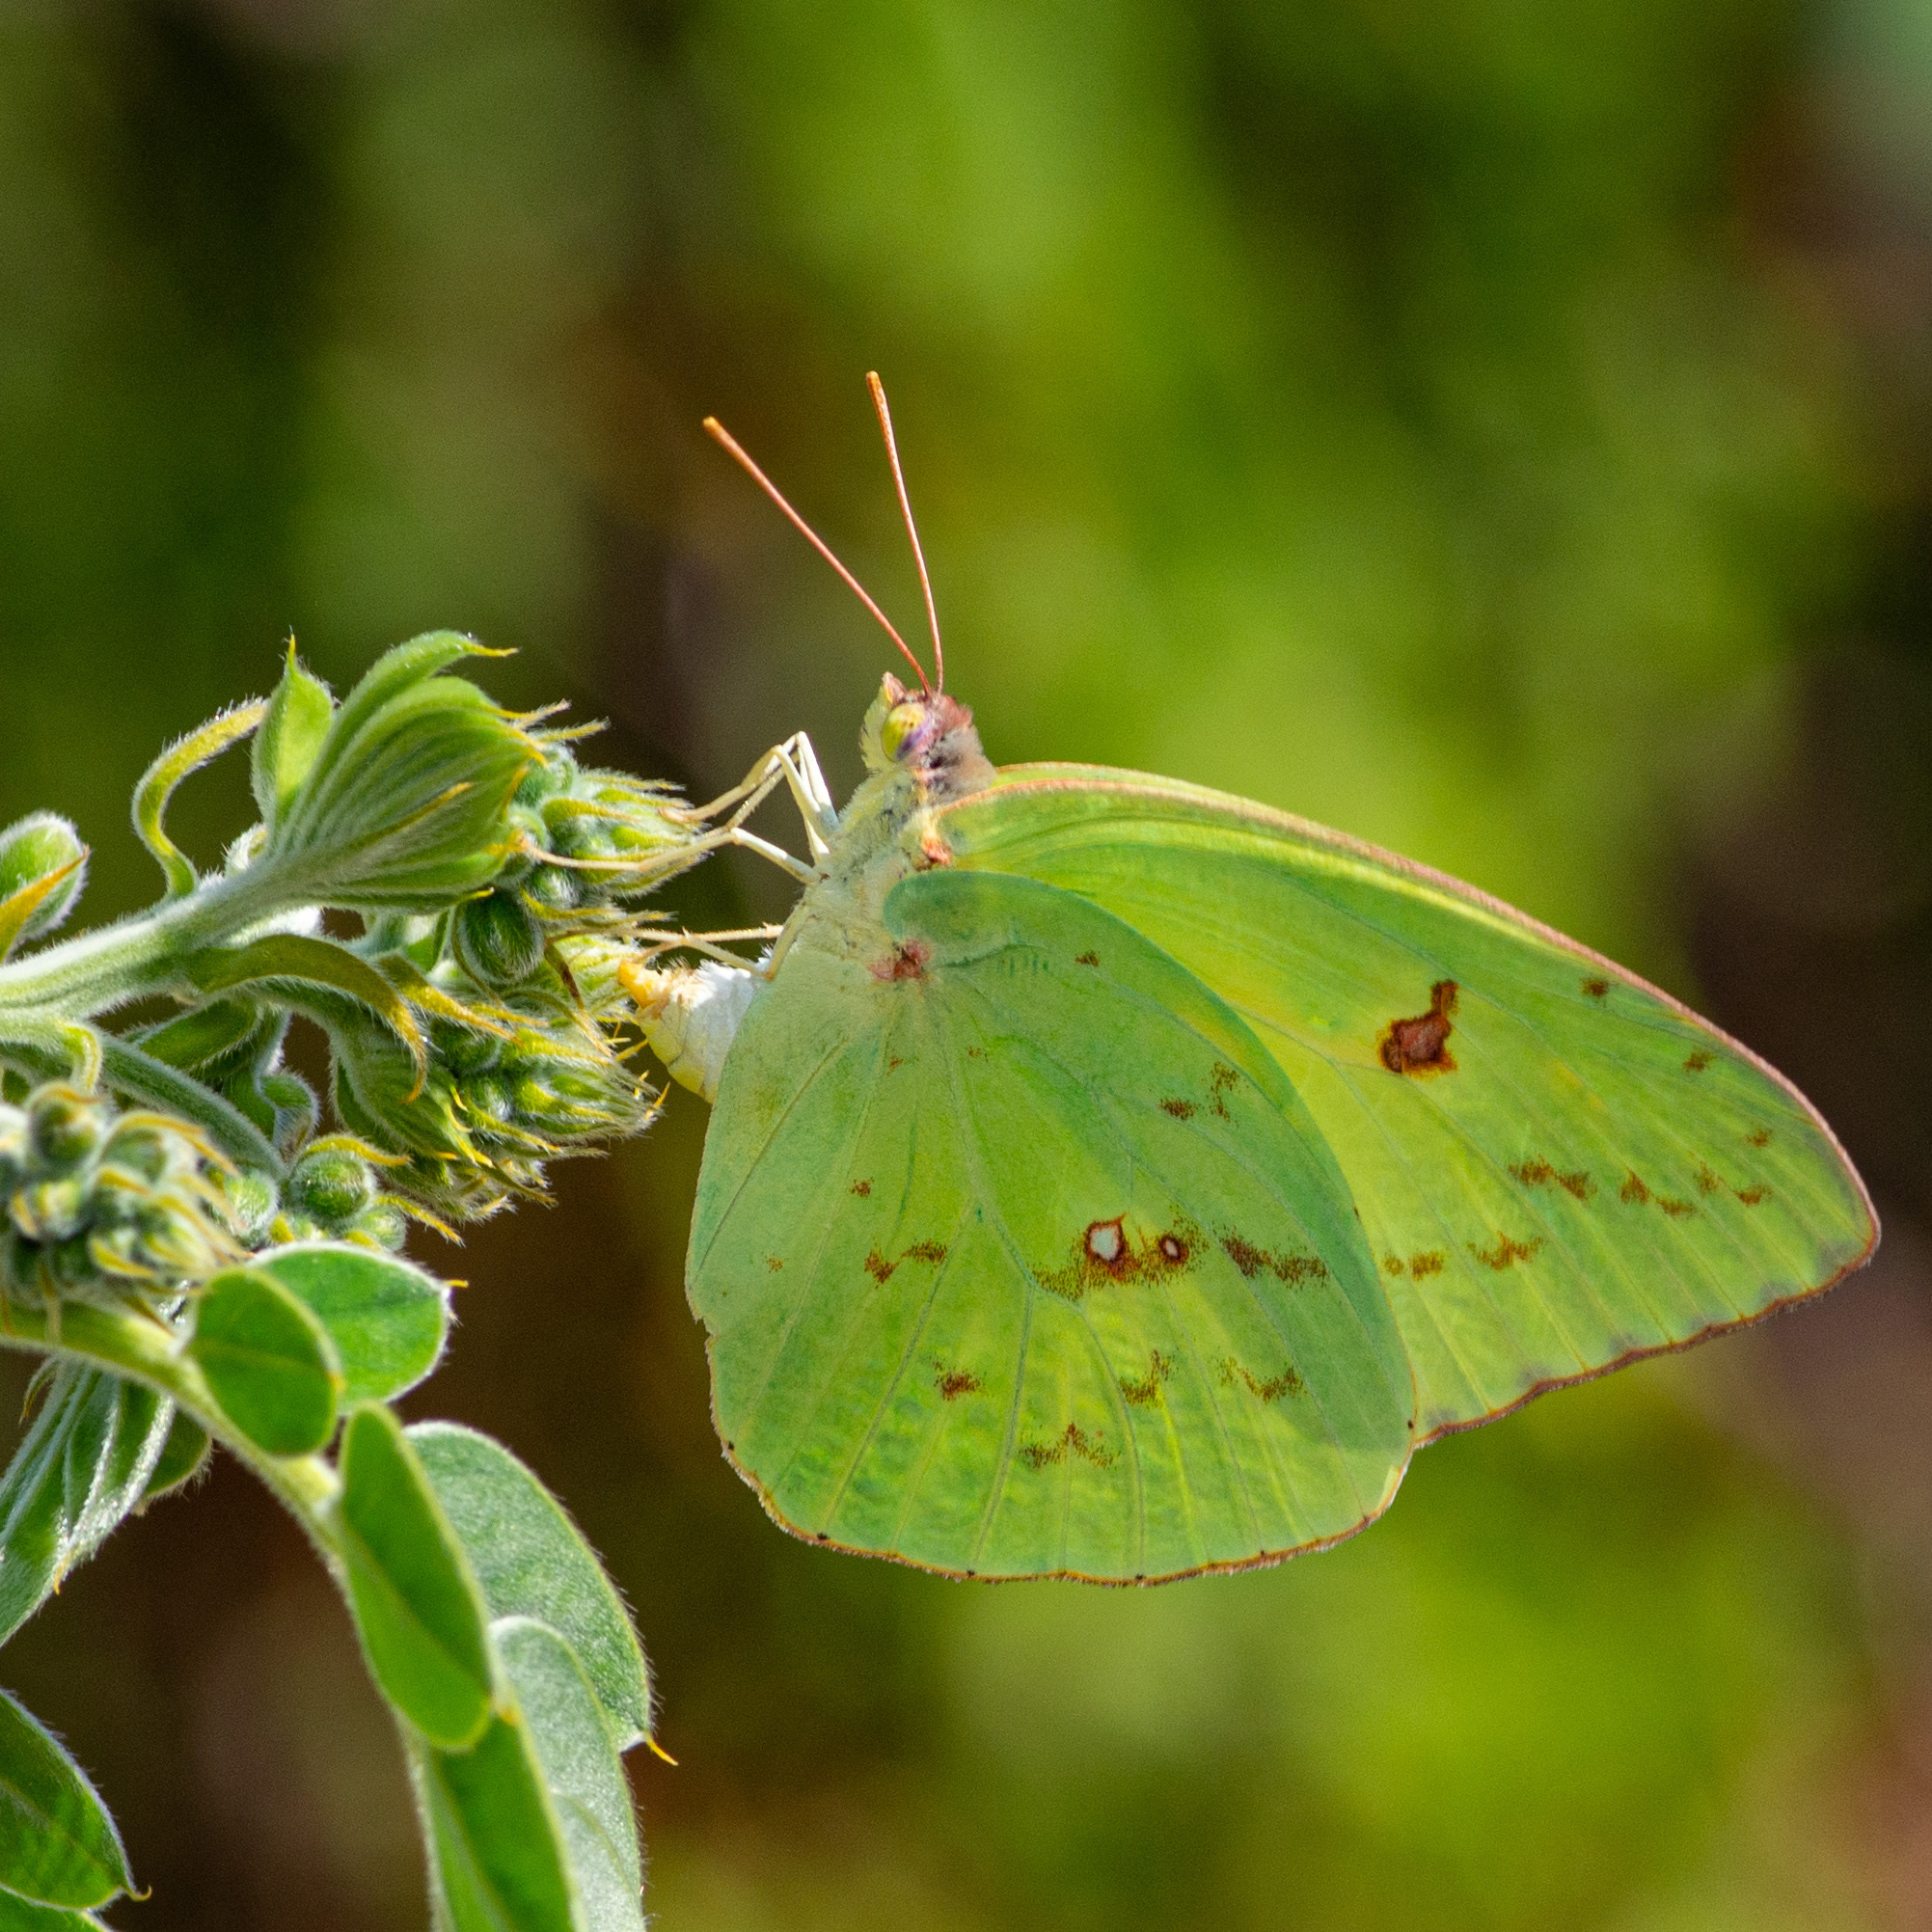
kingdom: Animalia
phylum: Arthropoda
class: Insecta
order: Lepidoptera
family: Pieridae
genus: Phoebis
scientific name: Phoebis sennae
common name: Cloudless sulphur
